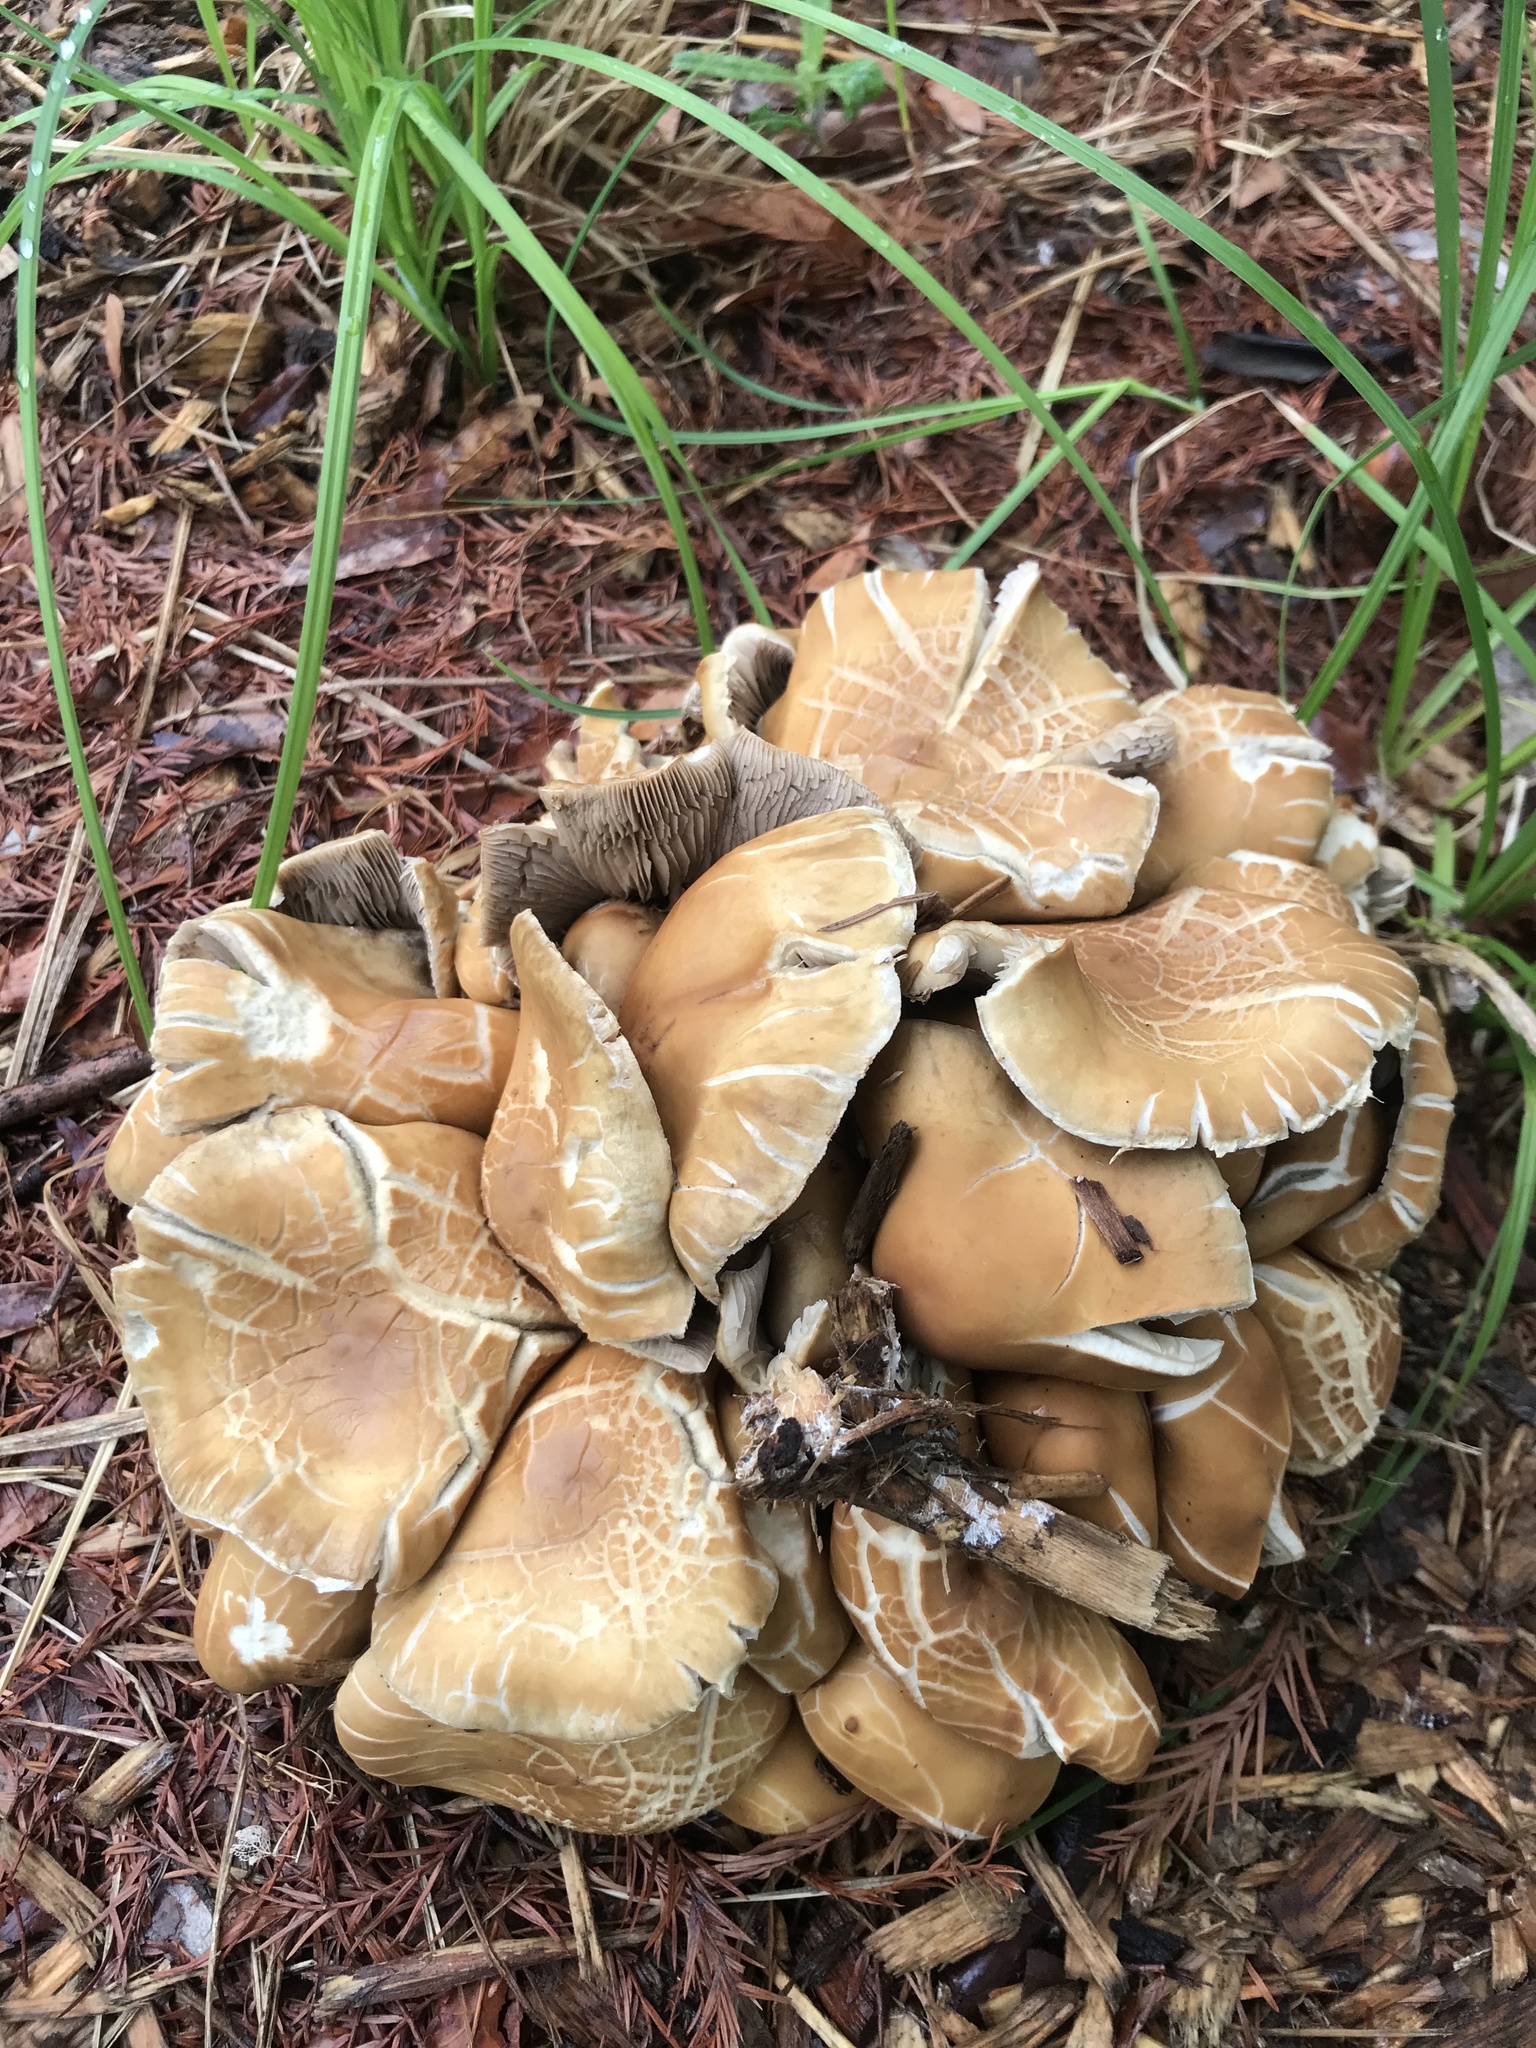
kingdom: Fungi
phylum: Basidiomycota
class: Agaricomycetes
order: Agaricales
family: Strophariaceae
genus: Agrocybe
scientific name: Agrocybe praecox
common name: Spring fieldcap
